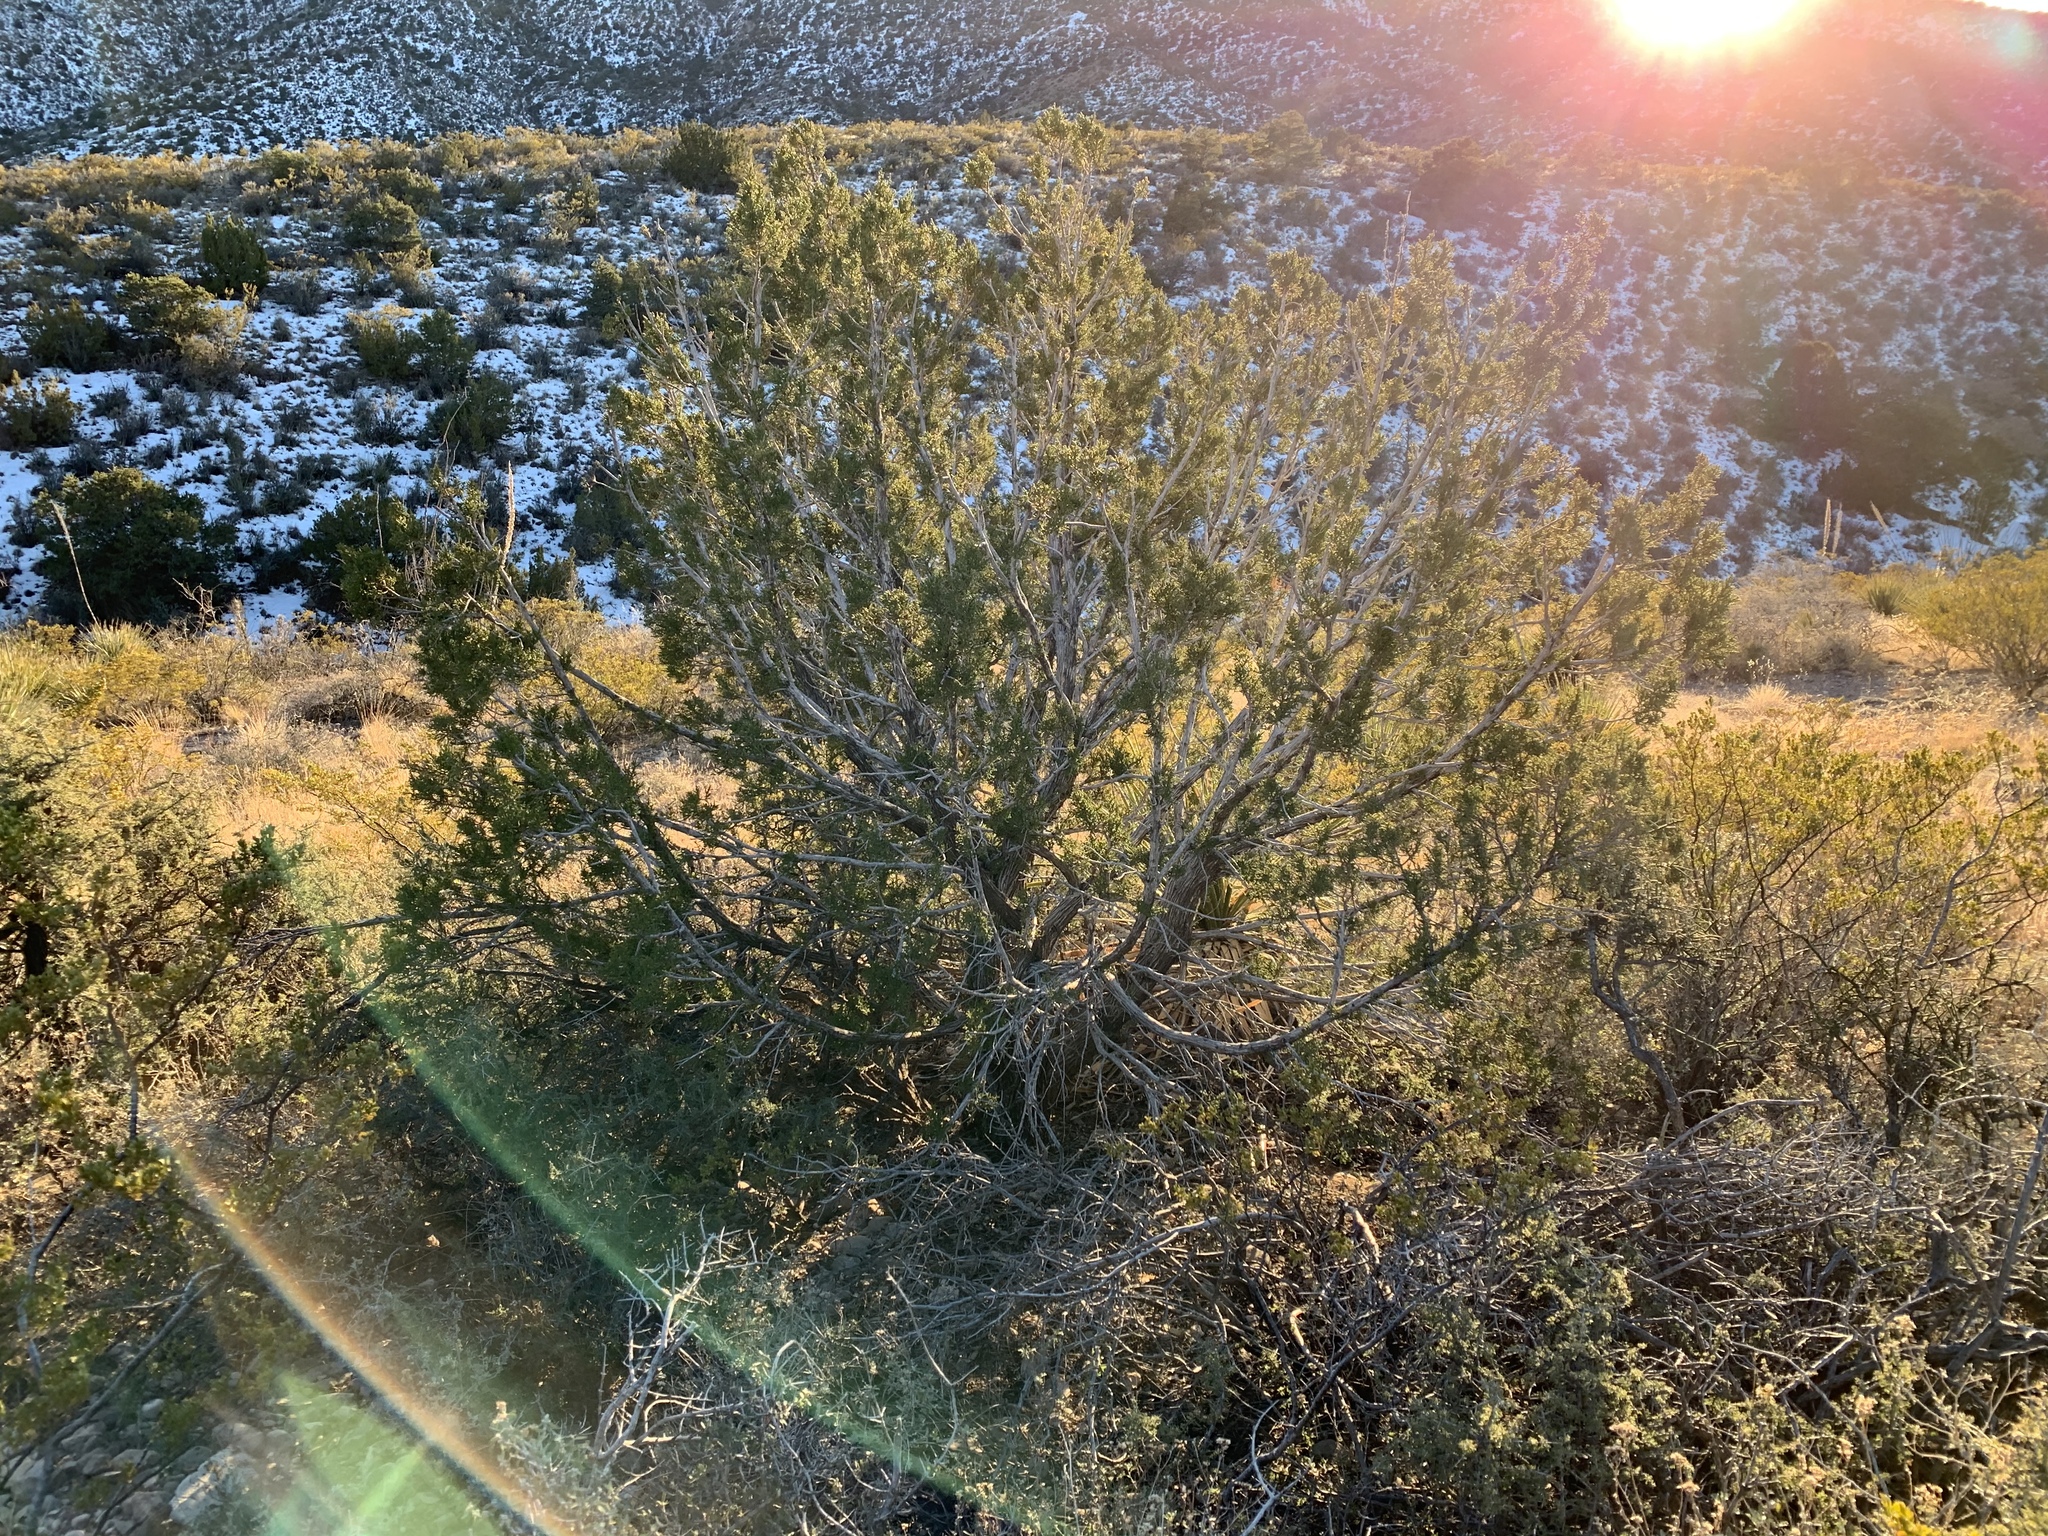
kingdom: Plantae
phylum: Tracheophyta
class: Pinopsida
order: Pinales
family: Cupressaceae
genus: Juniperus
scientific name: Juniperus monosperma
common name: One-seed juniper
